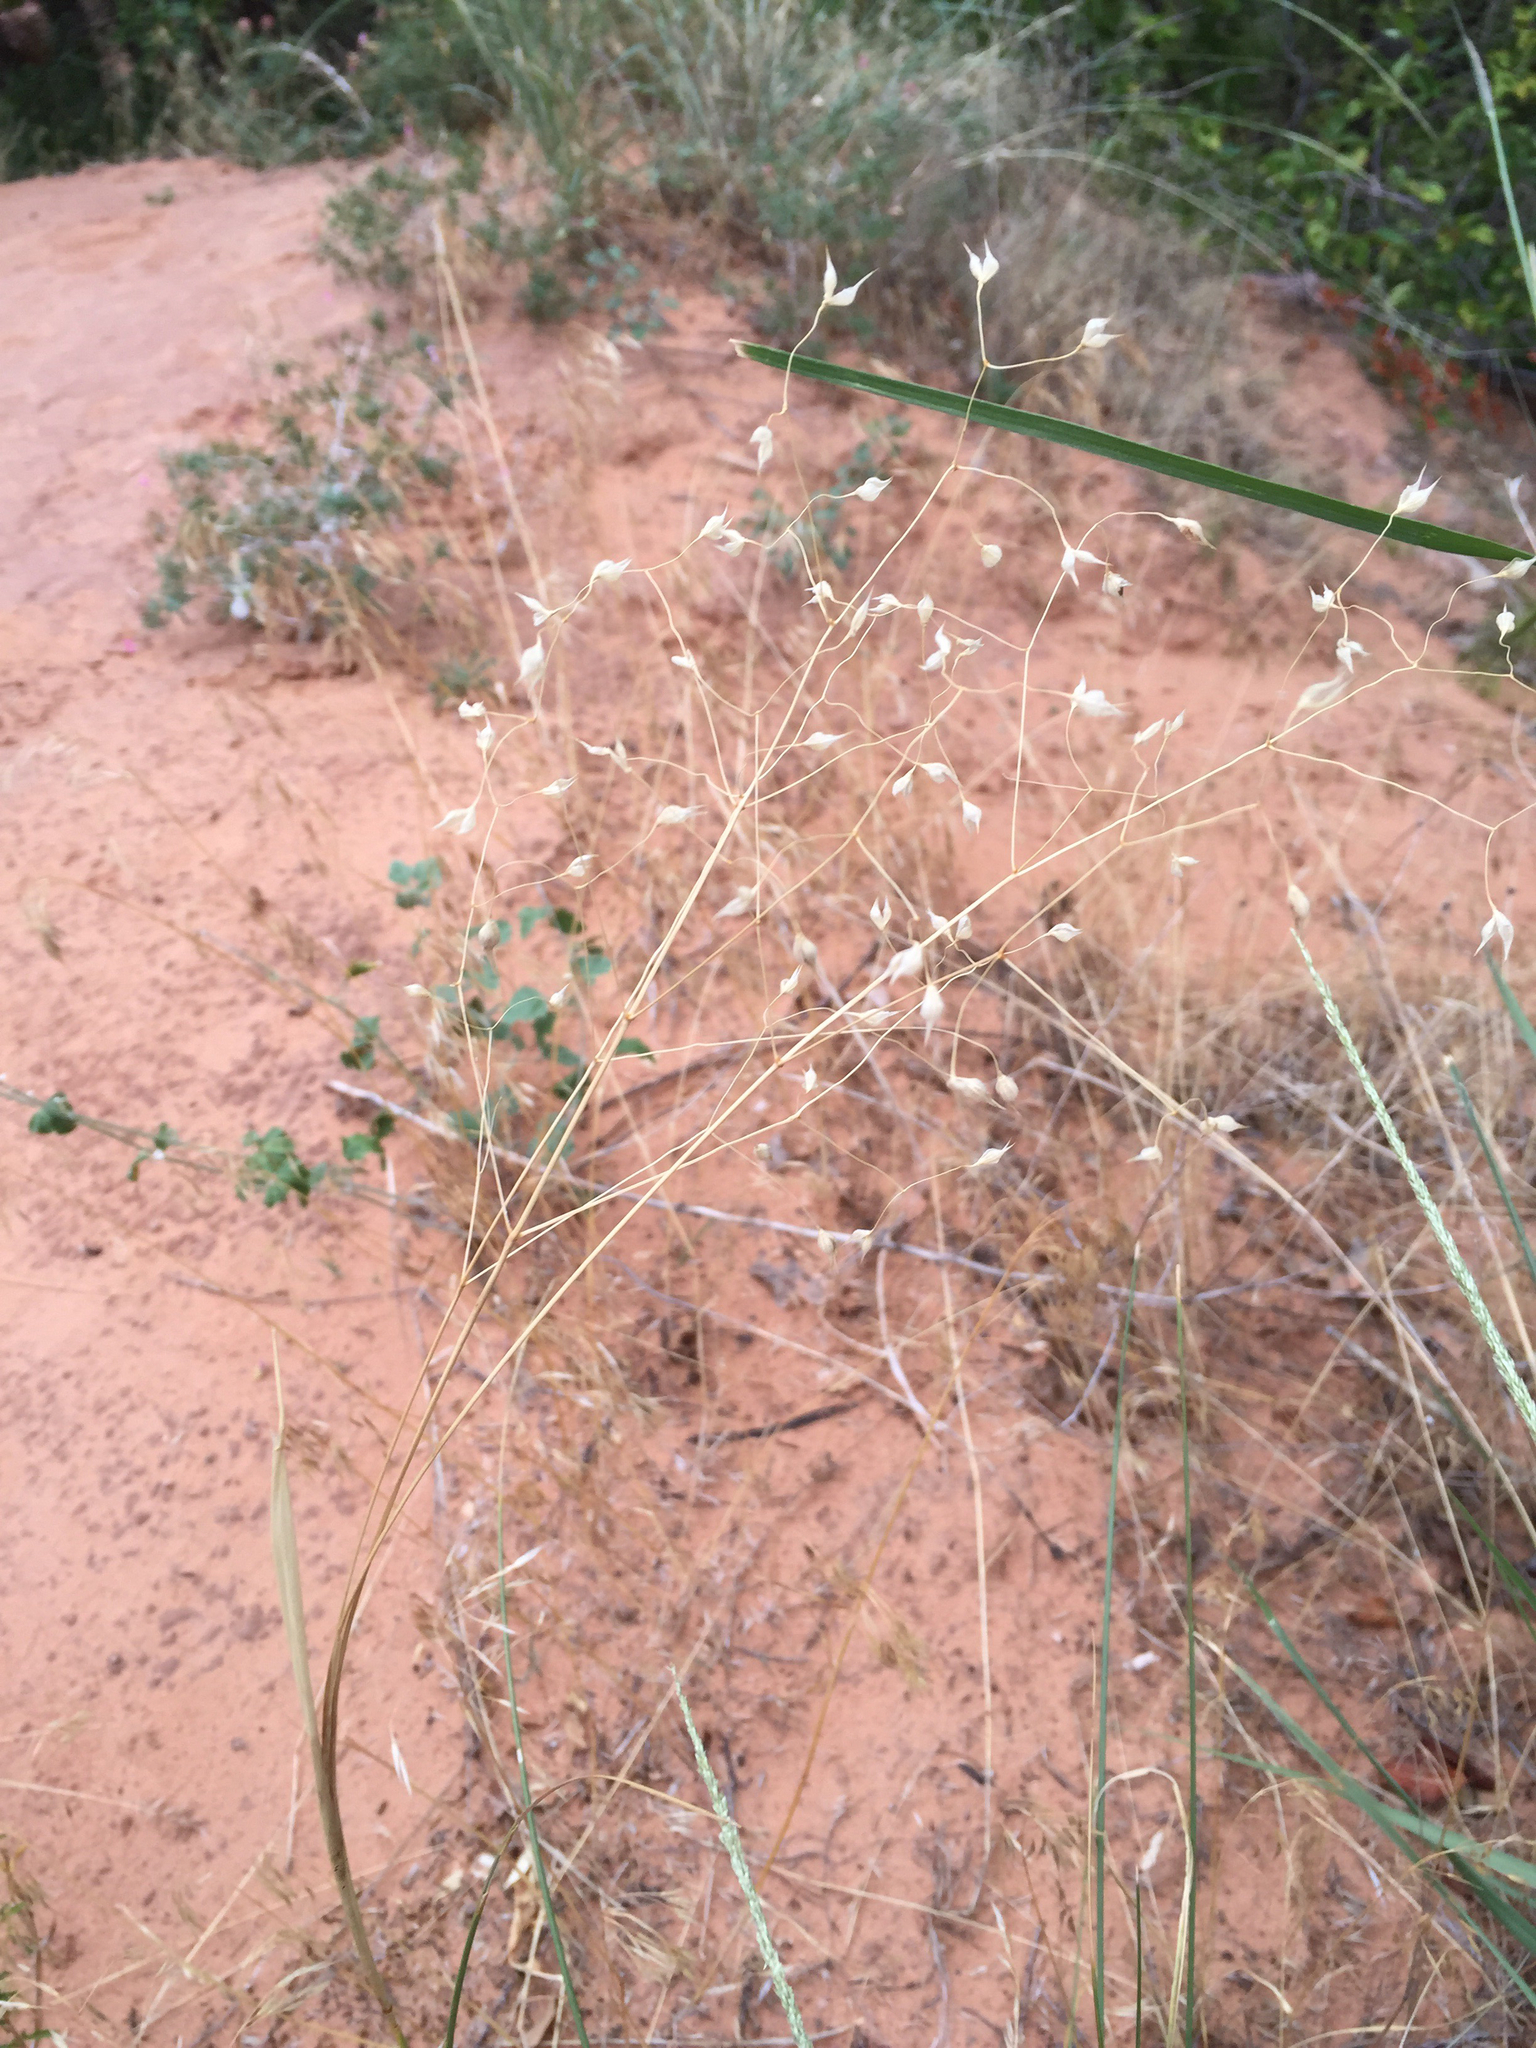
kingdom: Plantae
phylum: Tracheophyta
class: Liliopsida
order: Poales
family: Poaceae
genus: Eriocoma
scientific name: Eriocoma hymenoides
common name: Indian mountain ricegrass
